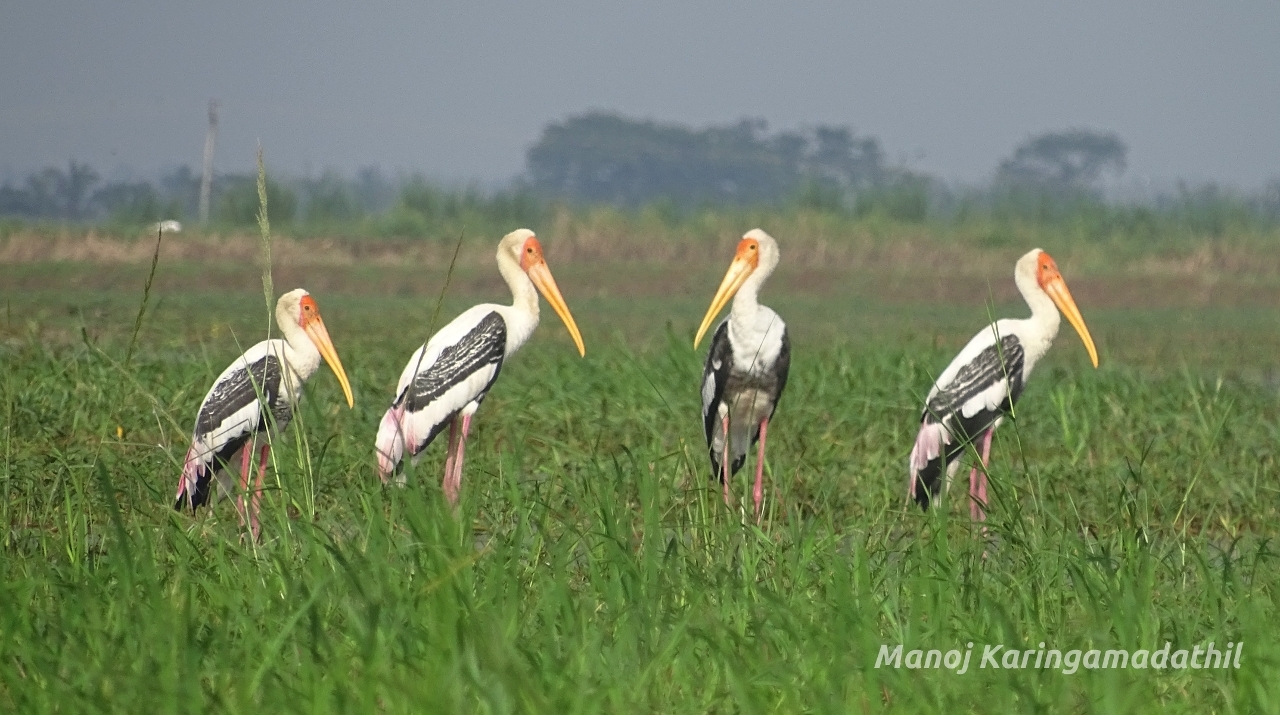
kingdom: Animalia
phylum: Chordata
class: Aves
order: Ciconiiformes
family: Ciconiidae
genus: Mycteria
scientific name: Mycteria leucocephala
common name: Painted stork
